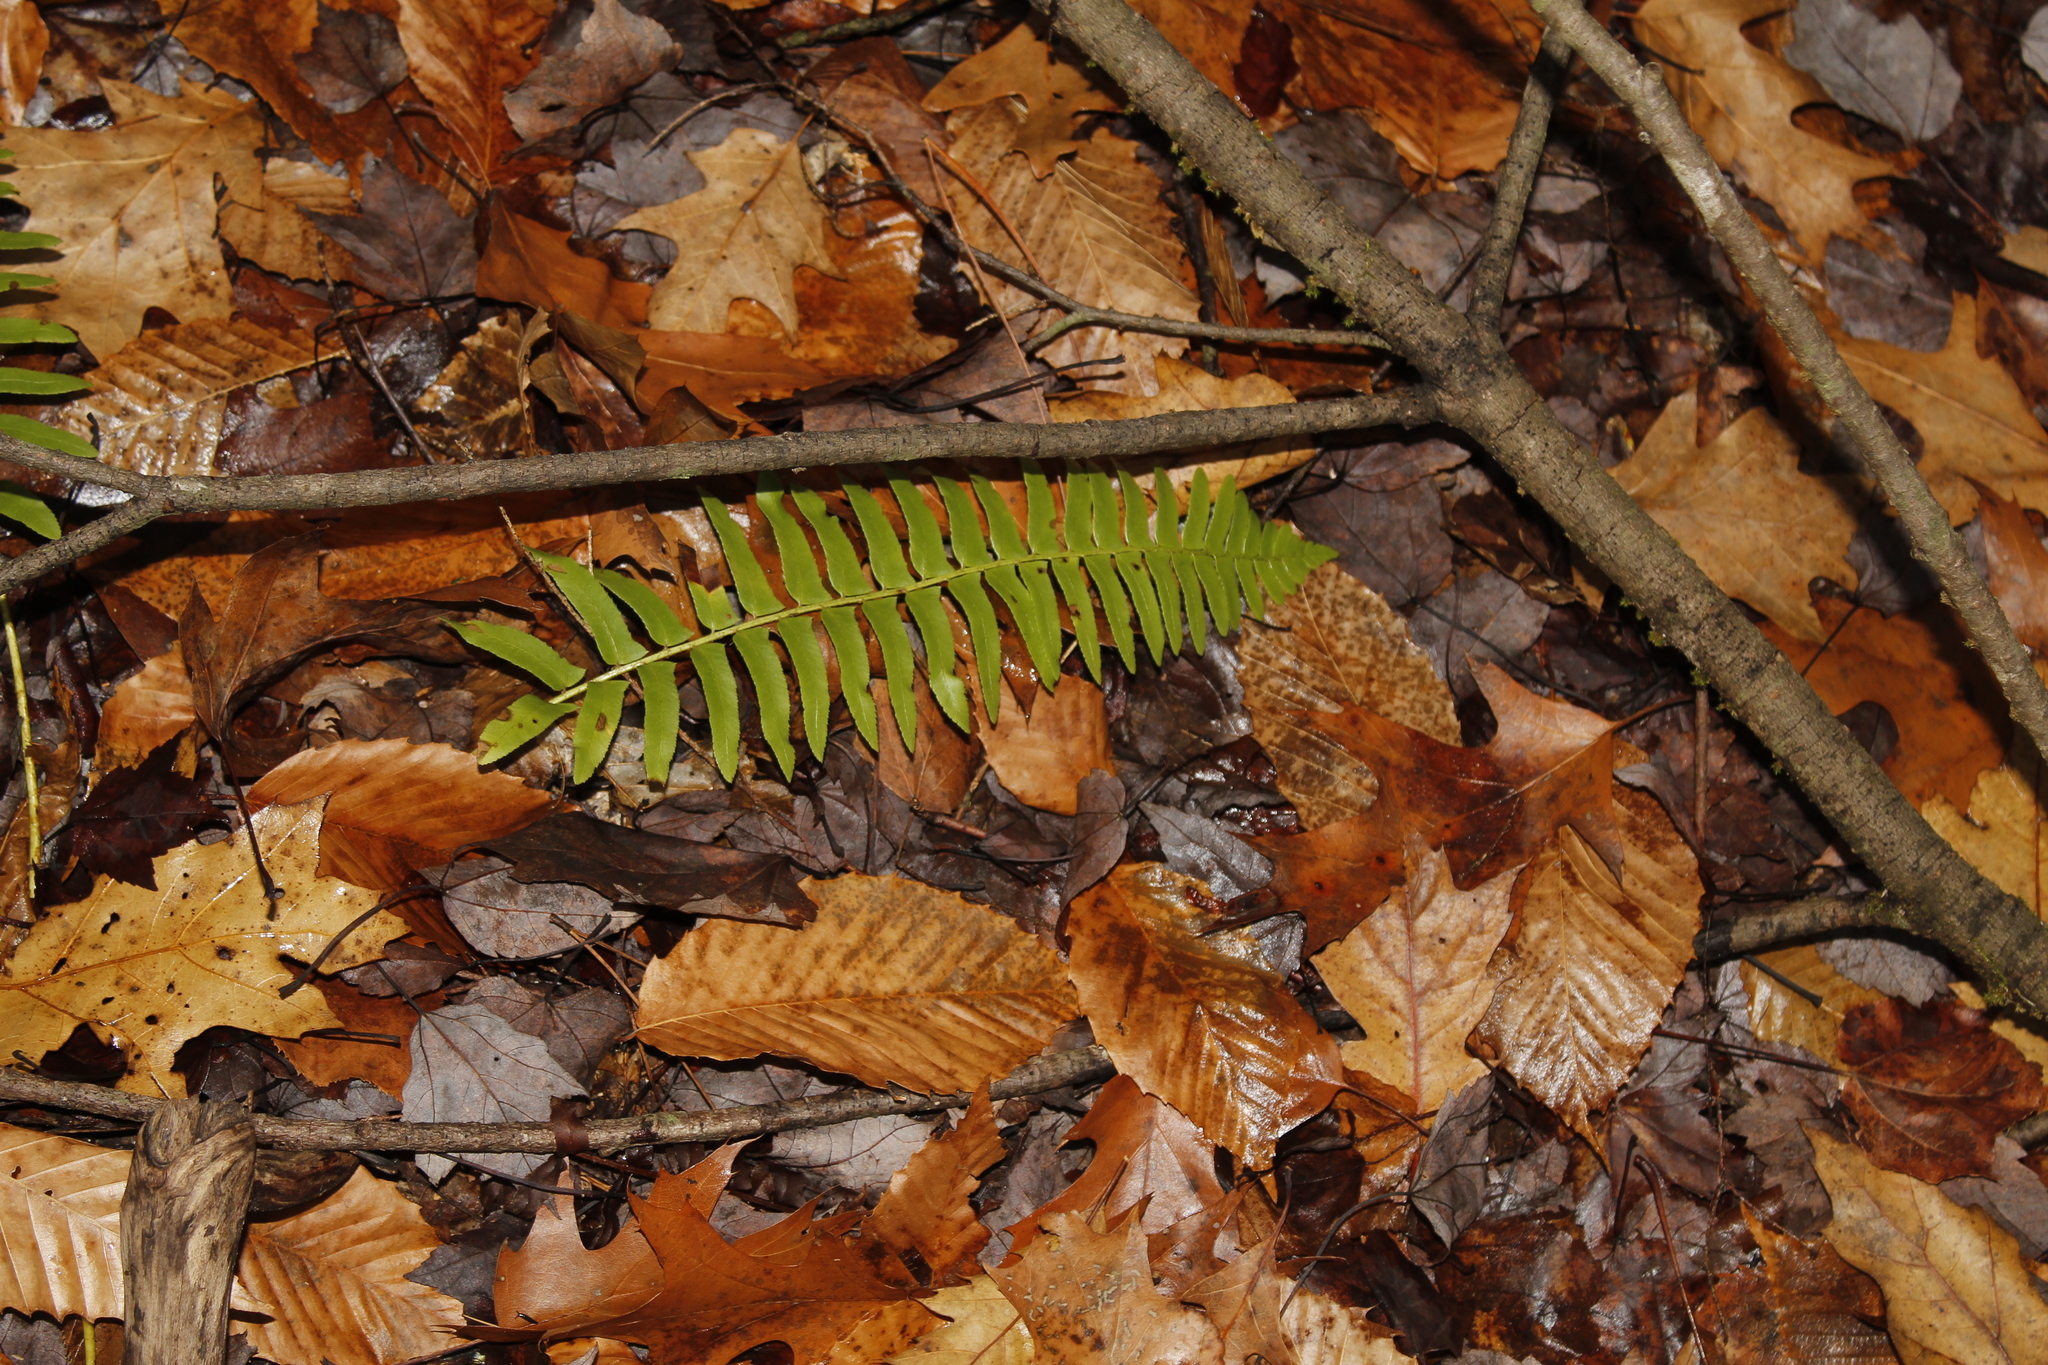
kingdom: Plantae
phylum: Tracheophyta
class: Polypodiopsida
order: Polypodiales
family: Dryopteridaceae
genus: Polystichum
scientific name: Polystichum acrostichoides
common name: Christmas fern
